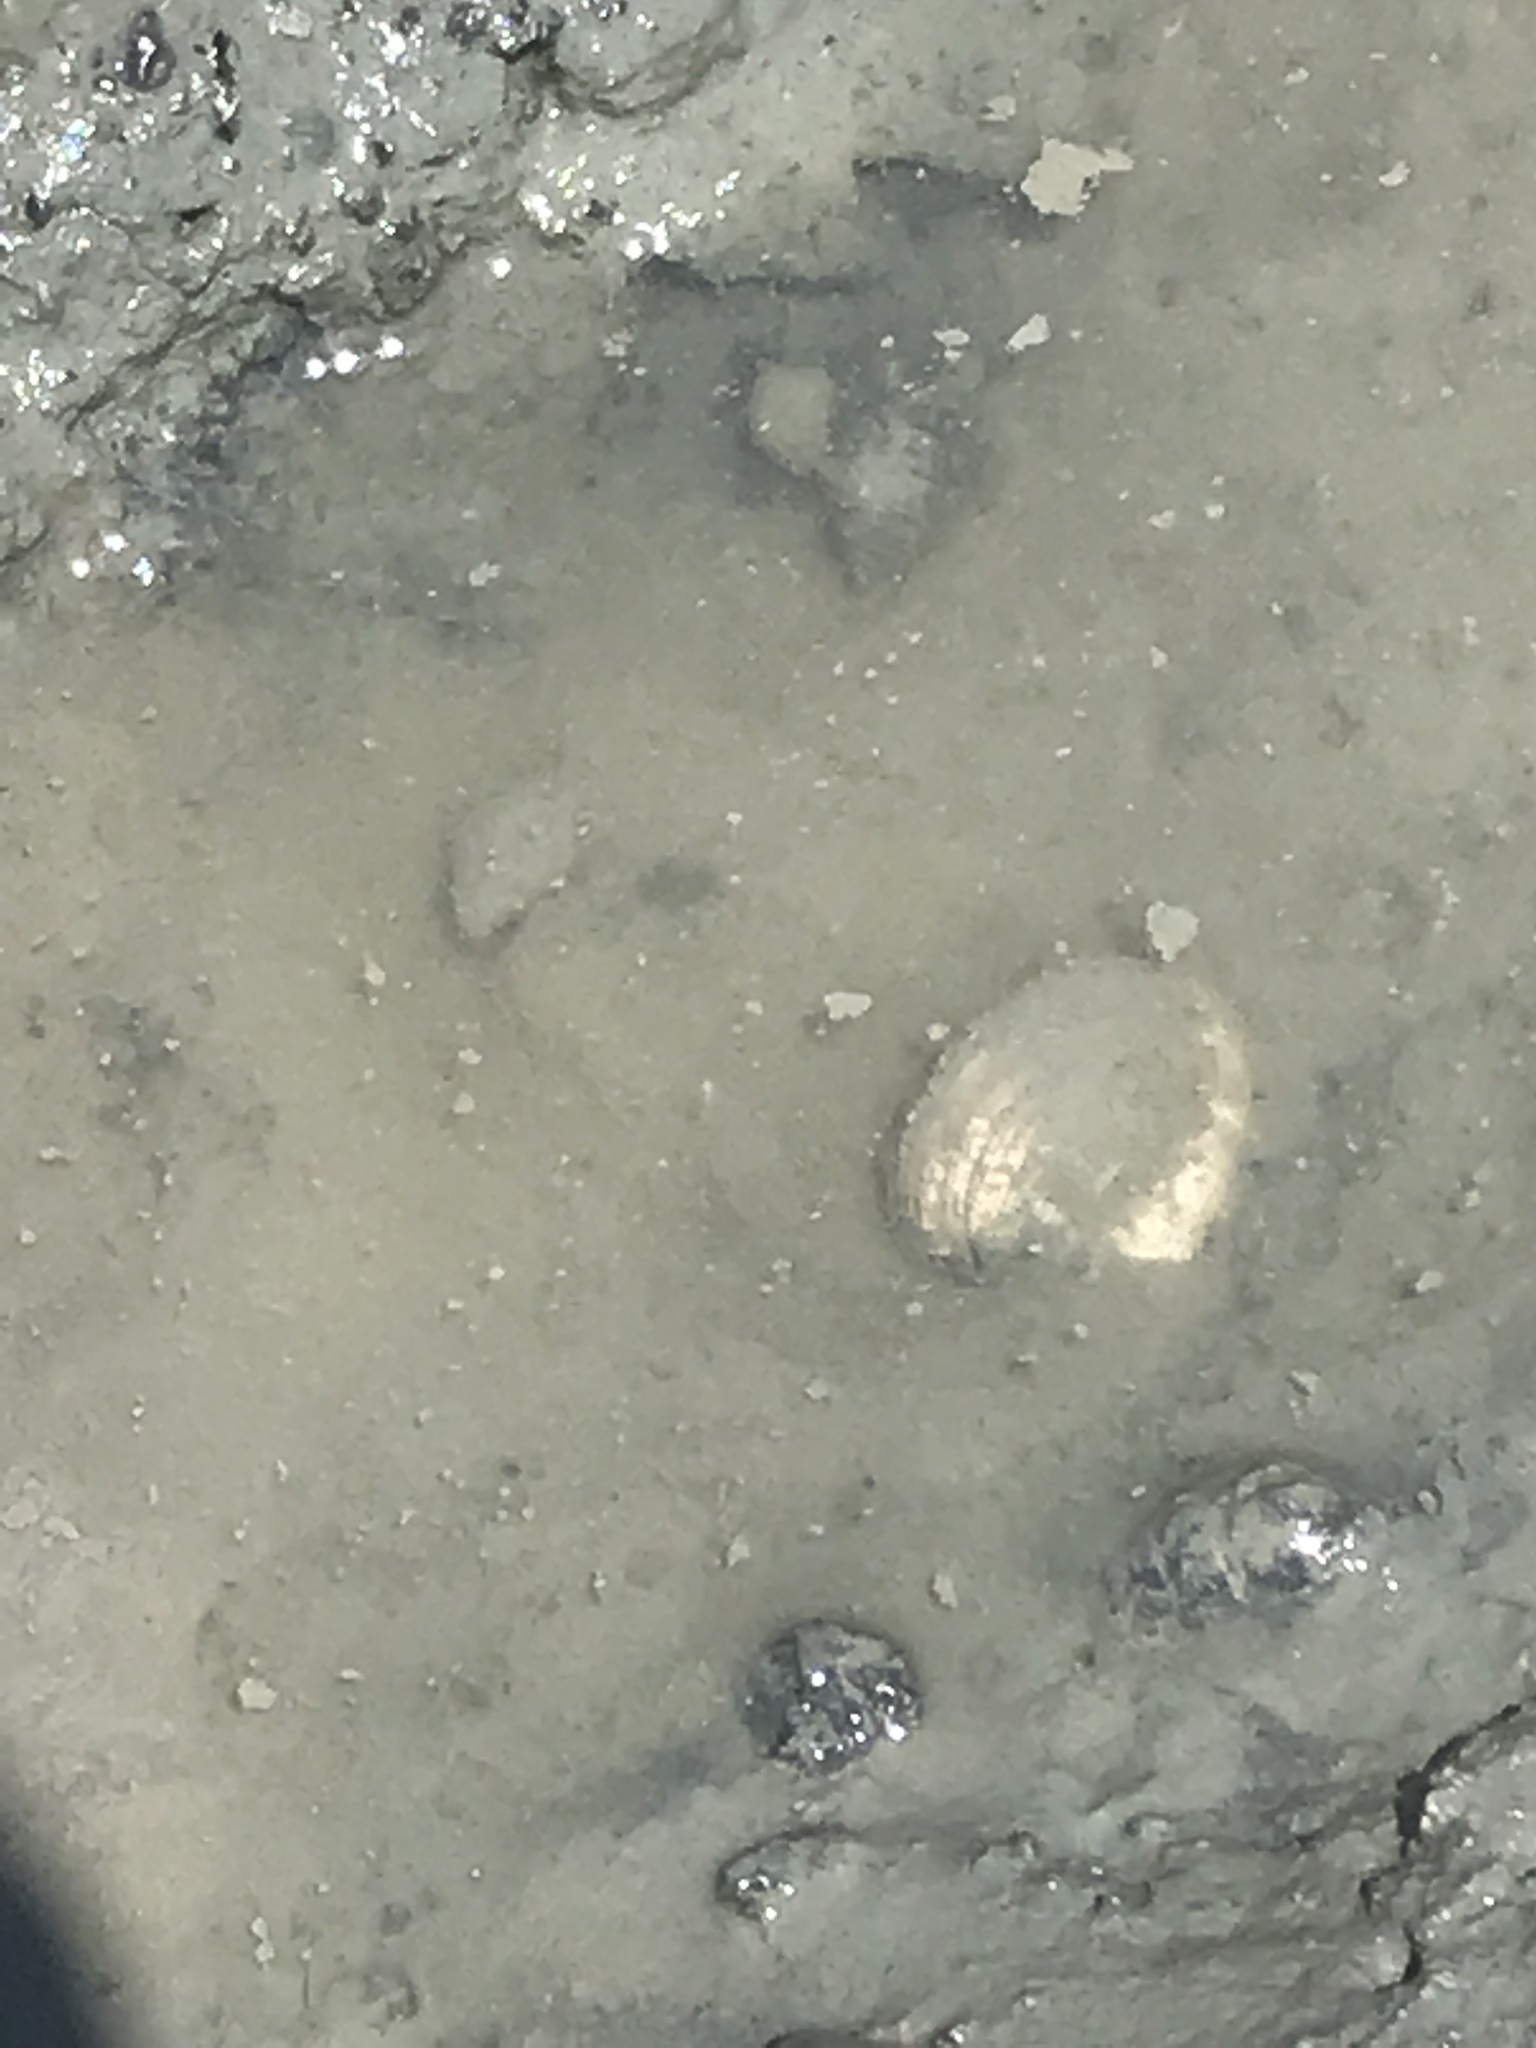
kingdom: Animalia
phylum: Mollusca
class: Bivalvia
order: Myida
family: Myidae
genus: Mya
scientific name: Mya arenaria
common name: Soft-shelled clam
